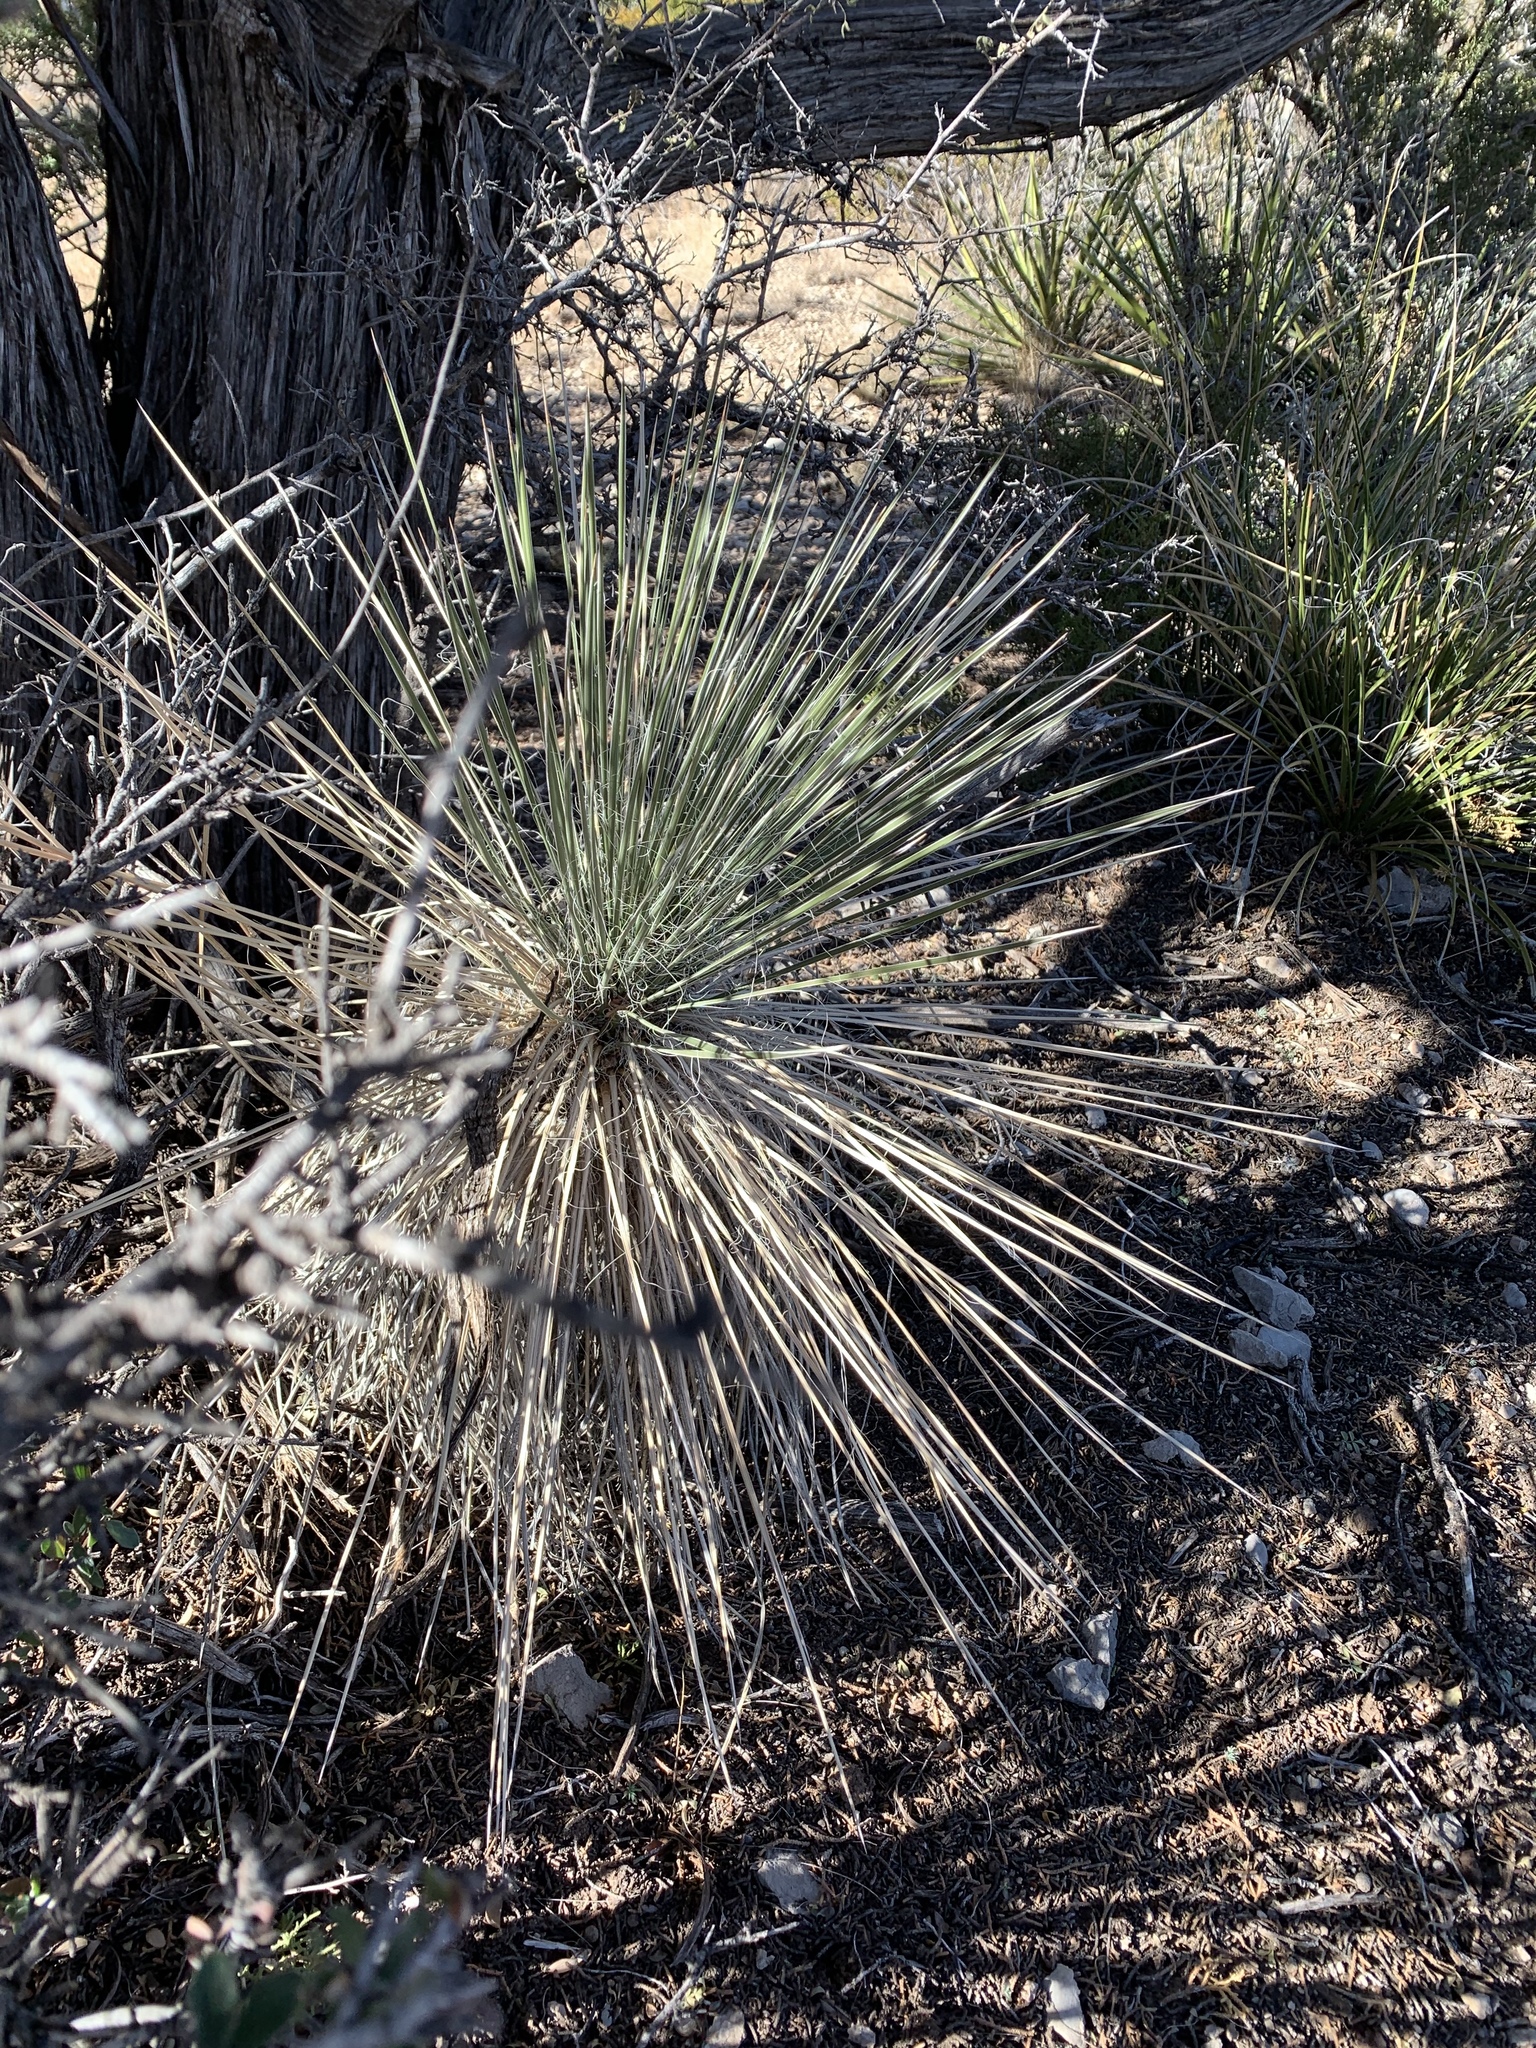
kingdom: Plantae
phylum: Tracheophyta
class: Liliopsida
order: Asparagales
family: Asparagaceae
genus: Yucca
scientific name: Yucca elata
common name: Palmella
